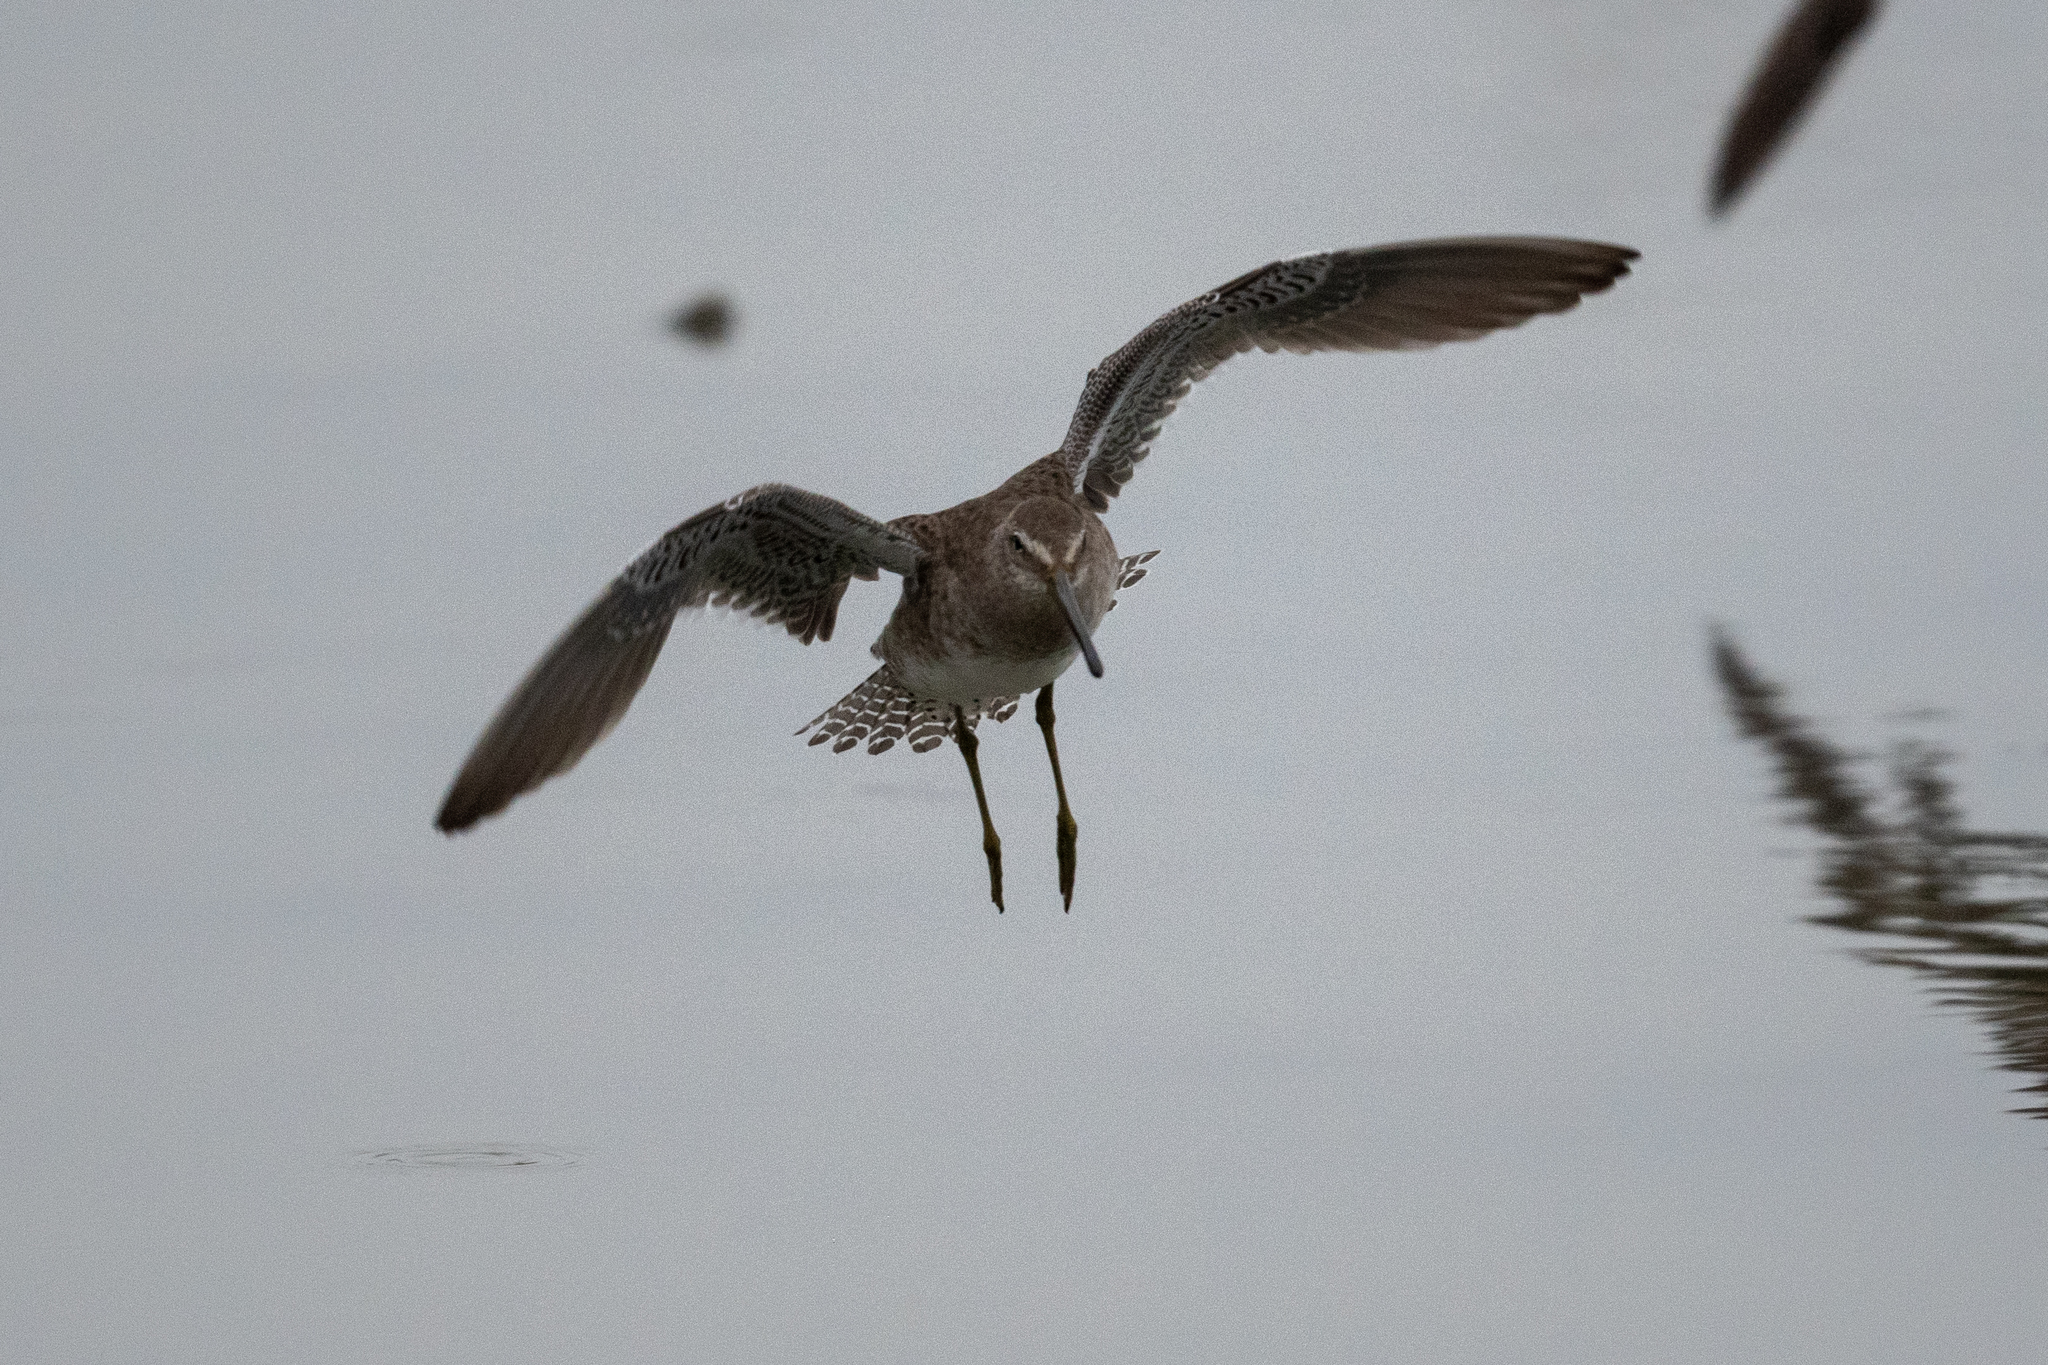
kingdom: Animalia
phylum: Chordata
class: Aves
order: Charadriiformes
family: Scolopacidae
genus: Limnodromus
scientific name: Limnodromus scolopaceus
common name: Long-billed dowitcher
